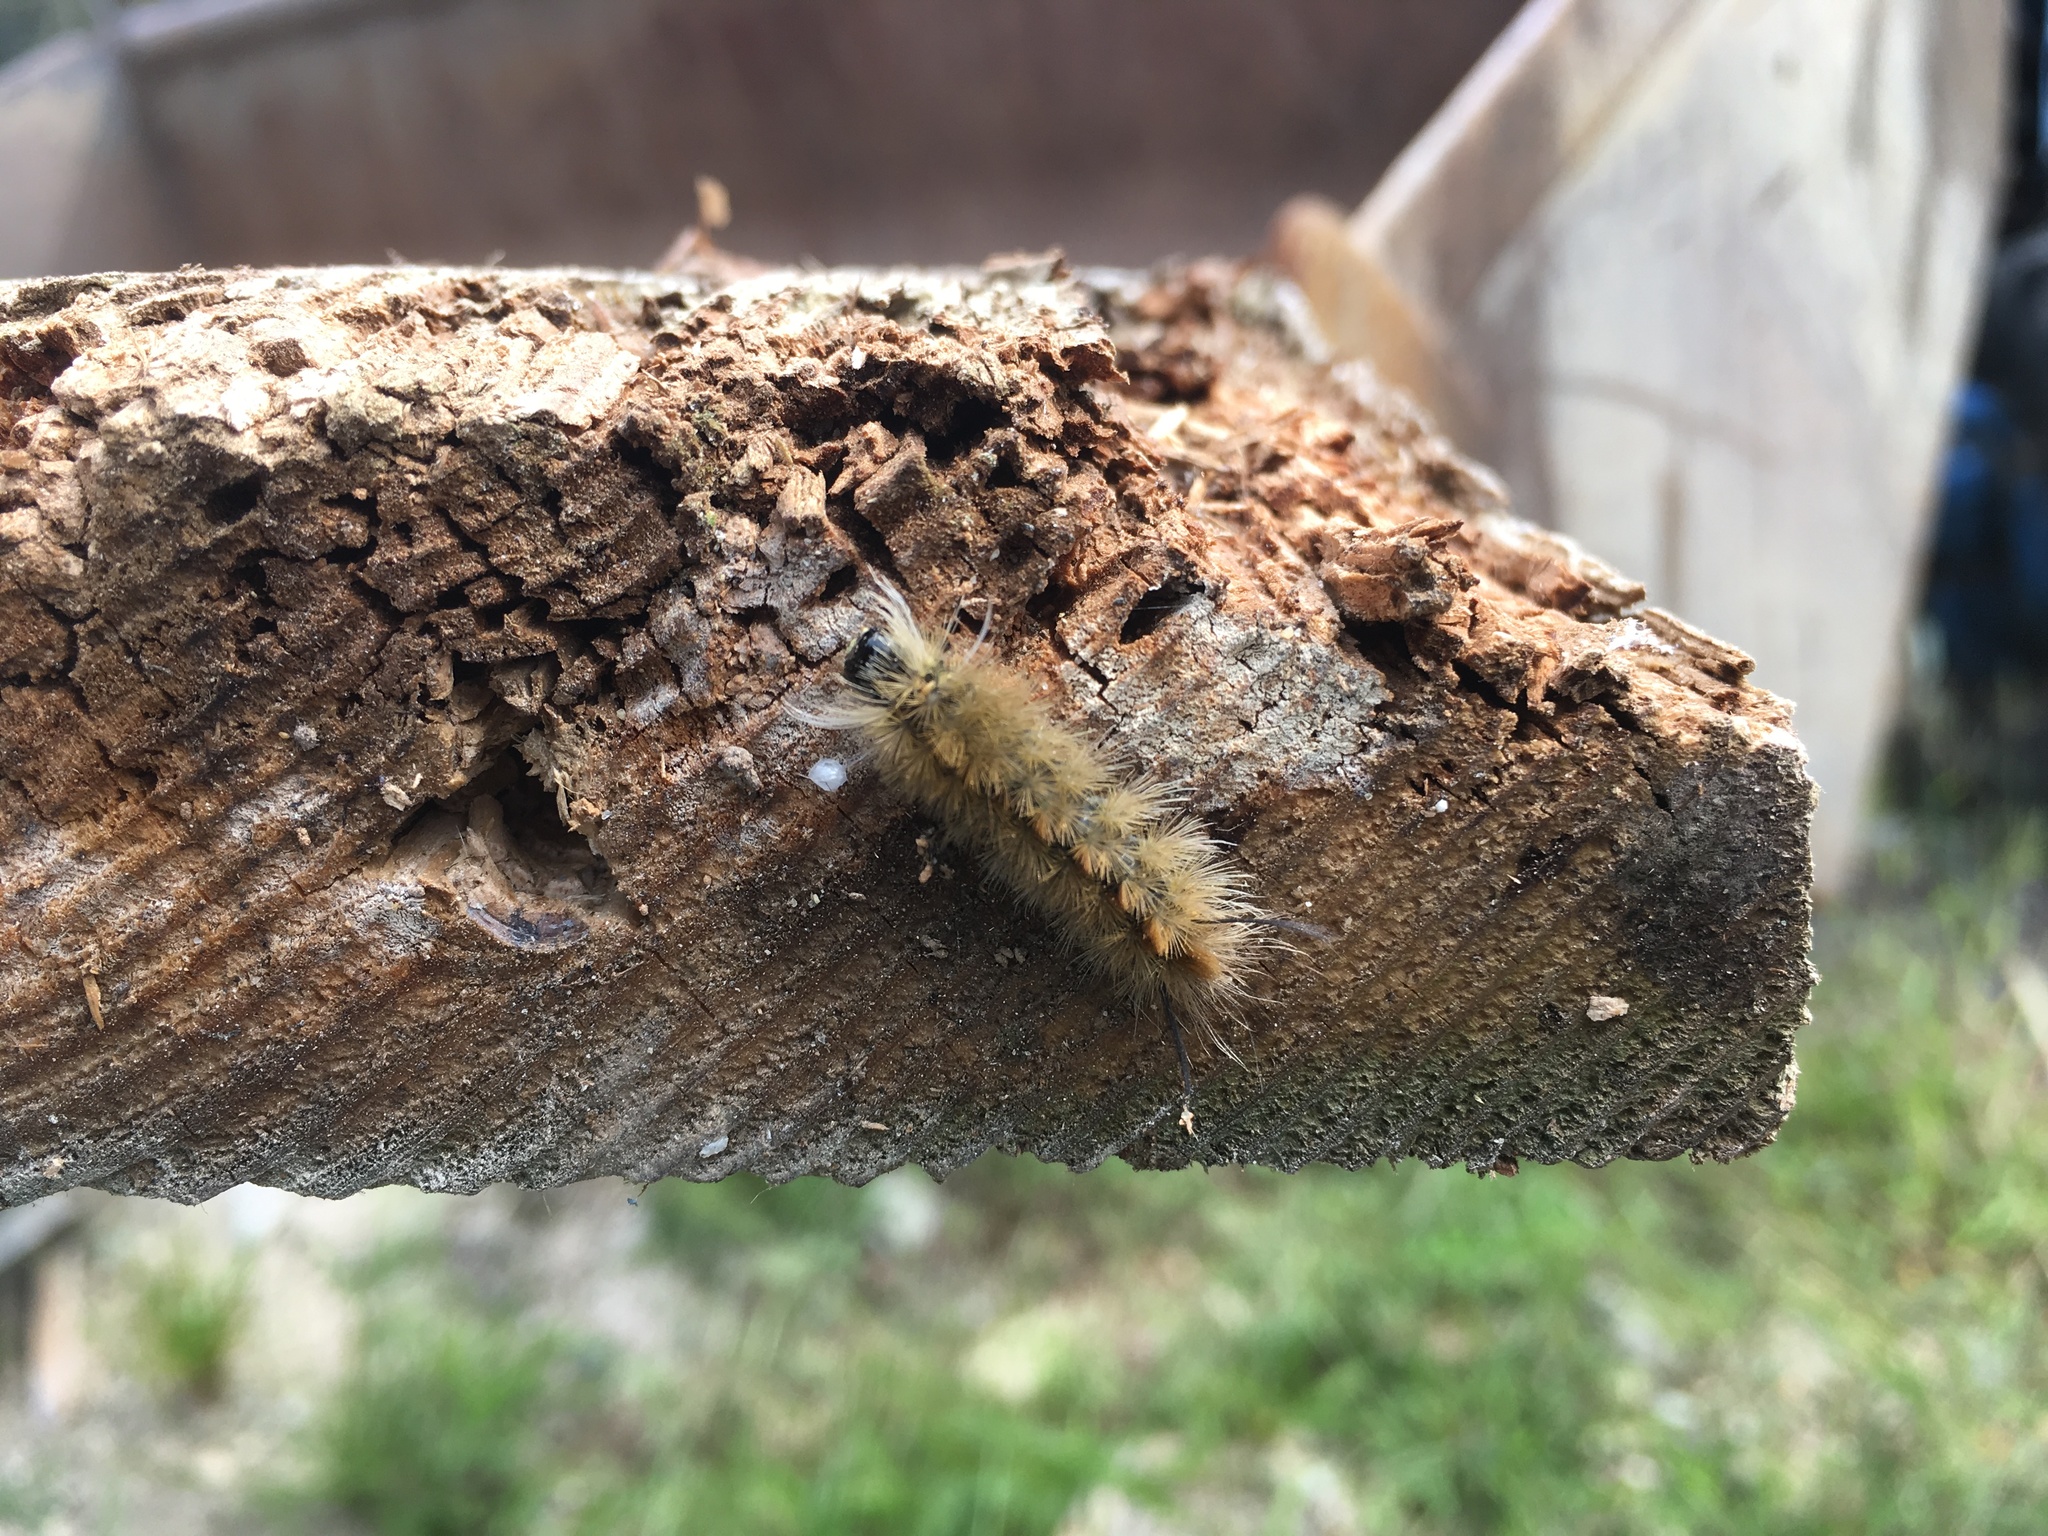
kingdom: Animalia
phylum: Arthropoda
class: Insecta
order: Lepidoptera
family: Erebidae
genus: Halysidota
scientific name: Halysidota tessellaris
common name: Banded tussock moth
